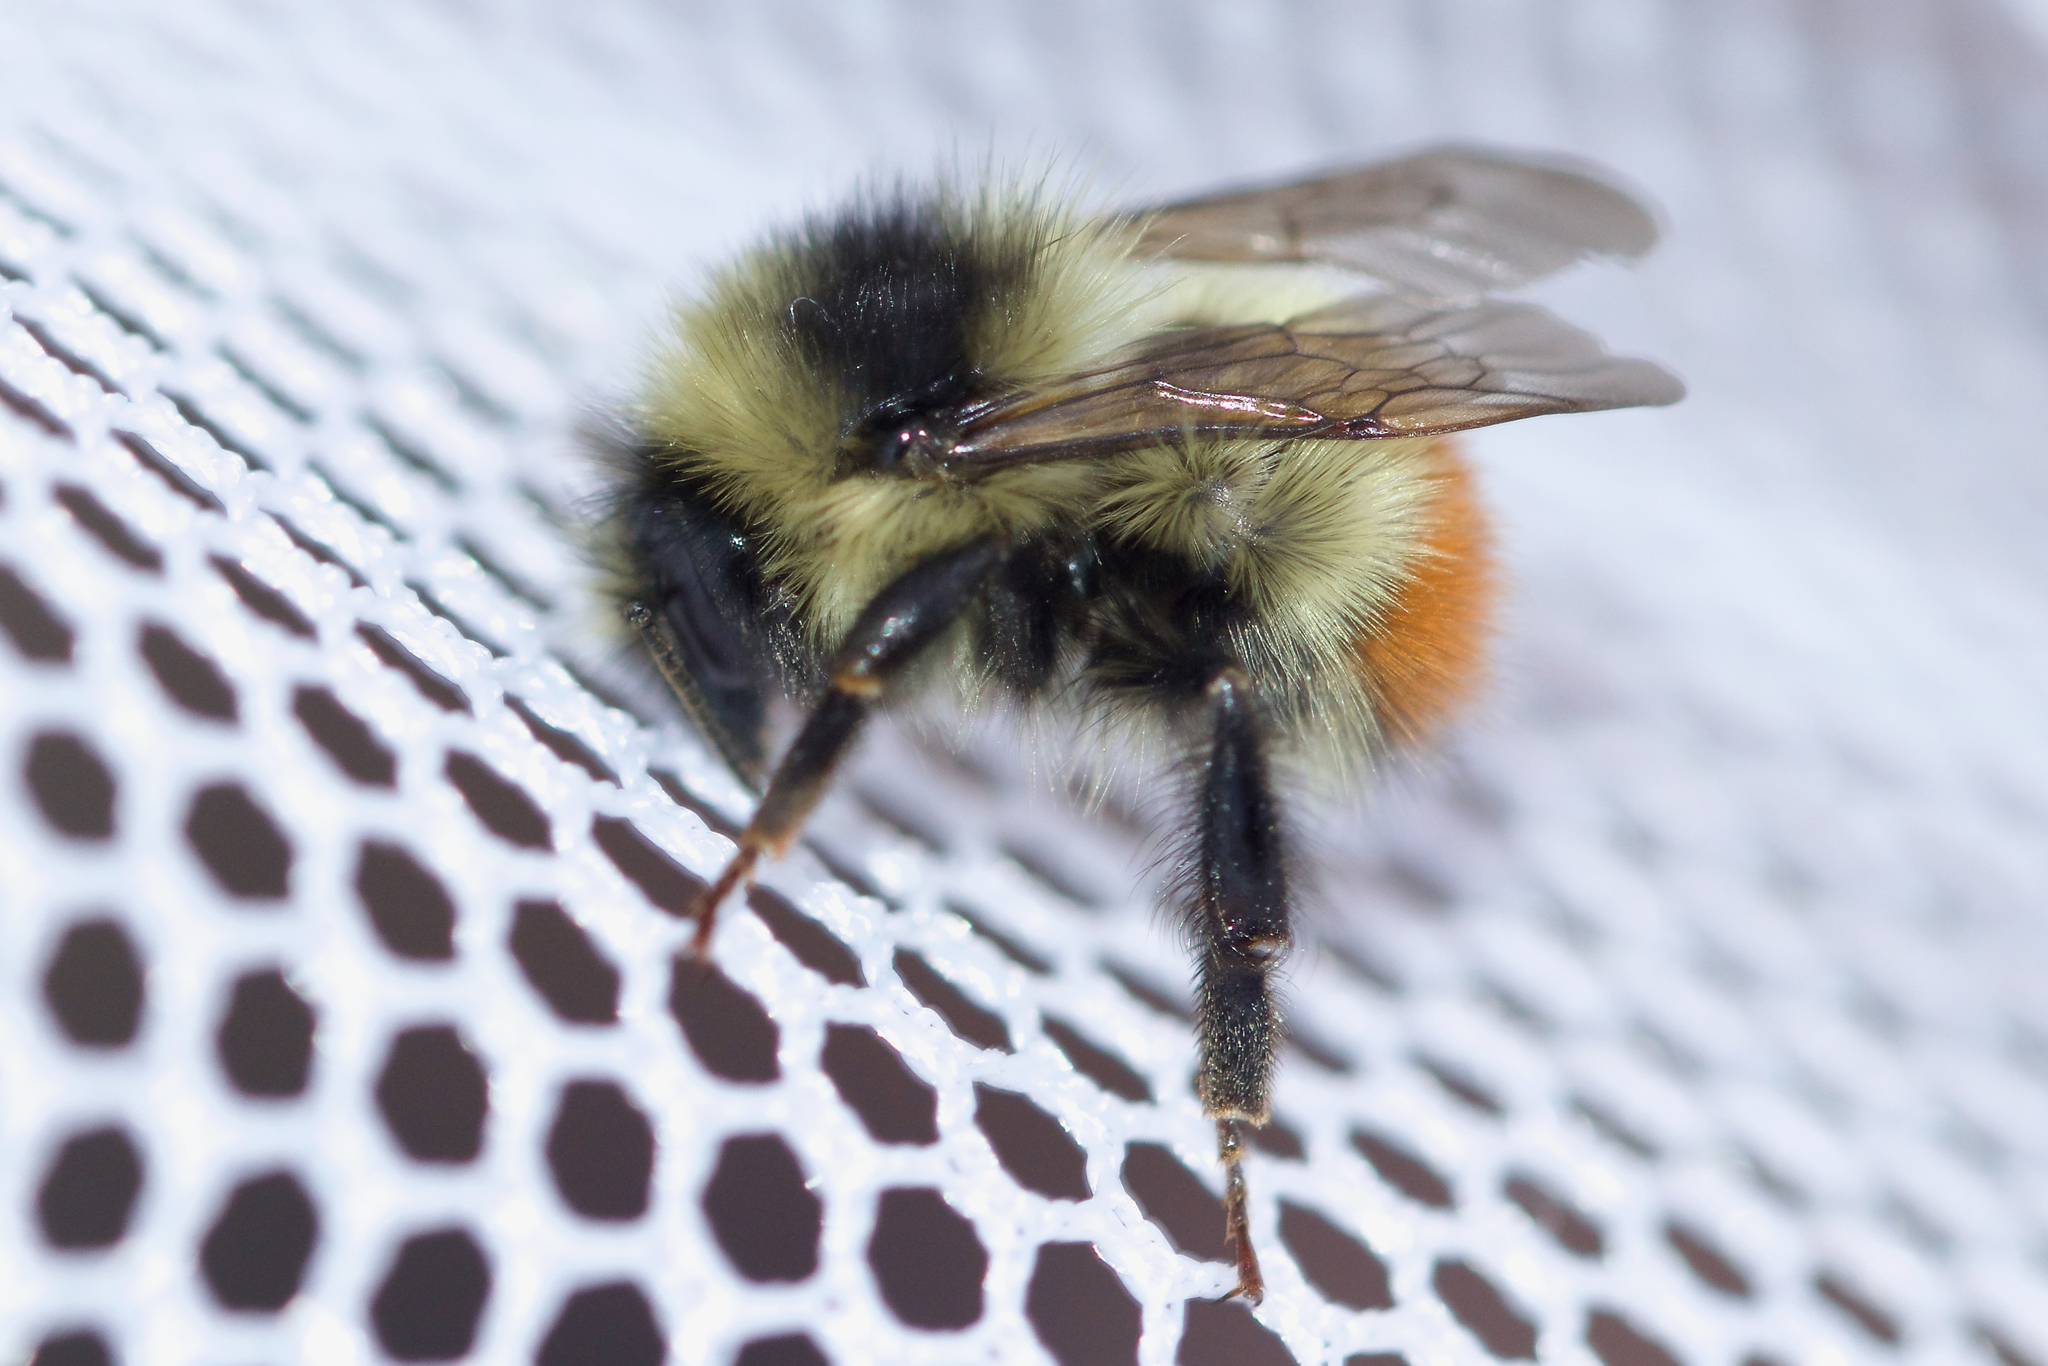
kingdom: Animalia
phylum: Arthropoda
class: Insecta
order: Hymenoptera
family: Apidae
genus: Bombus
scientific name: Bombus flavifrons
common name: Yellow head bumble bee
